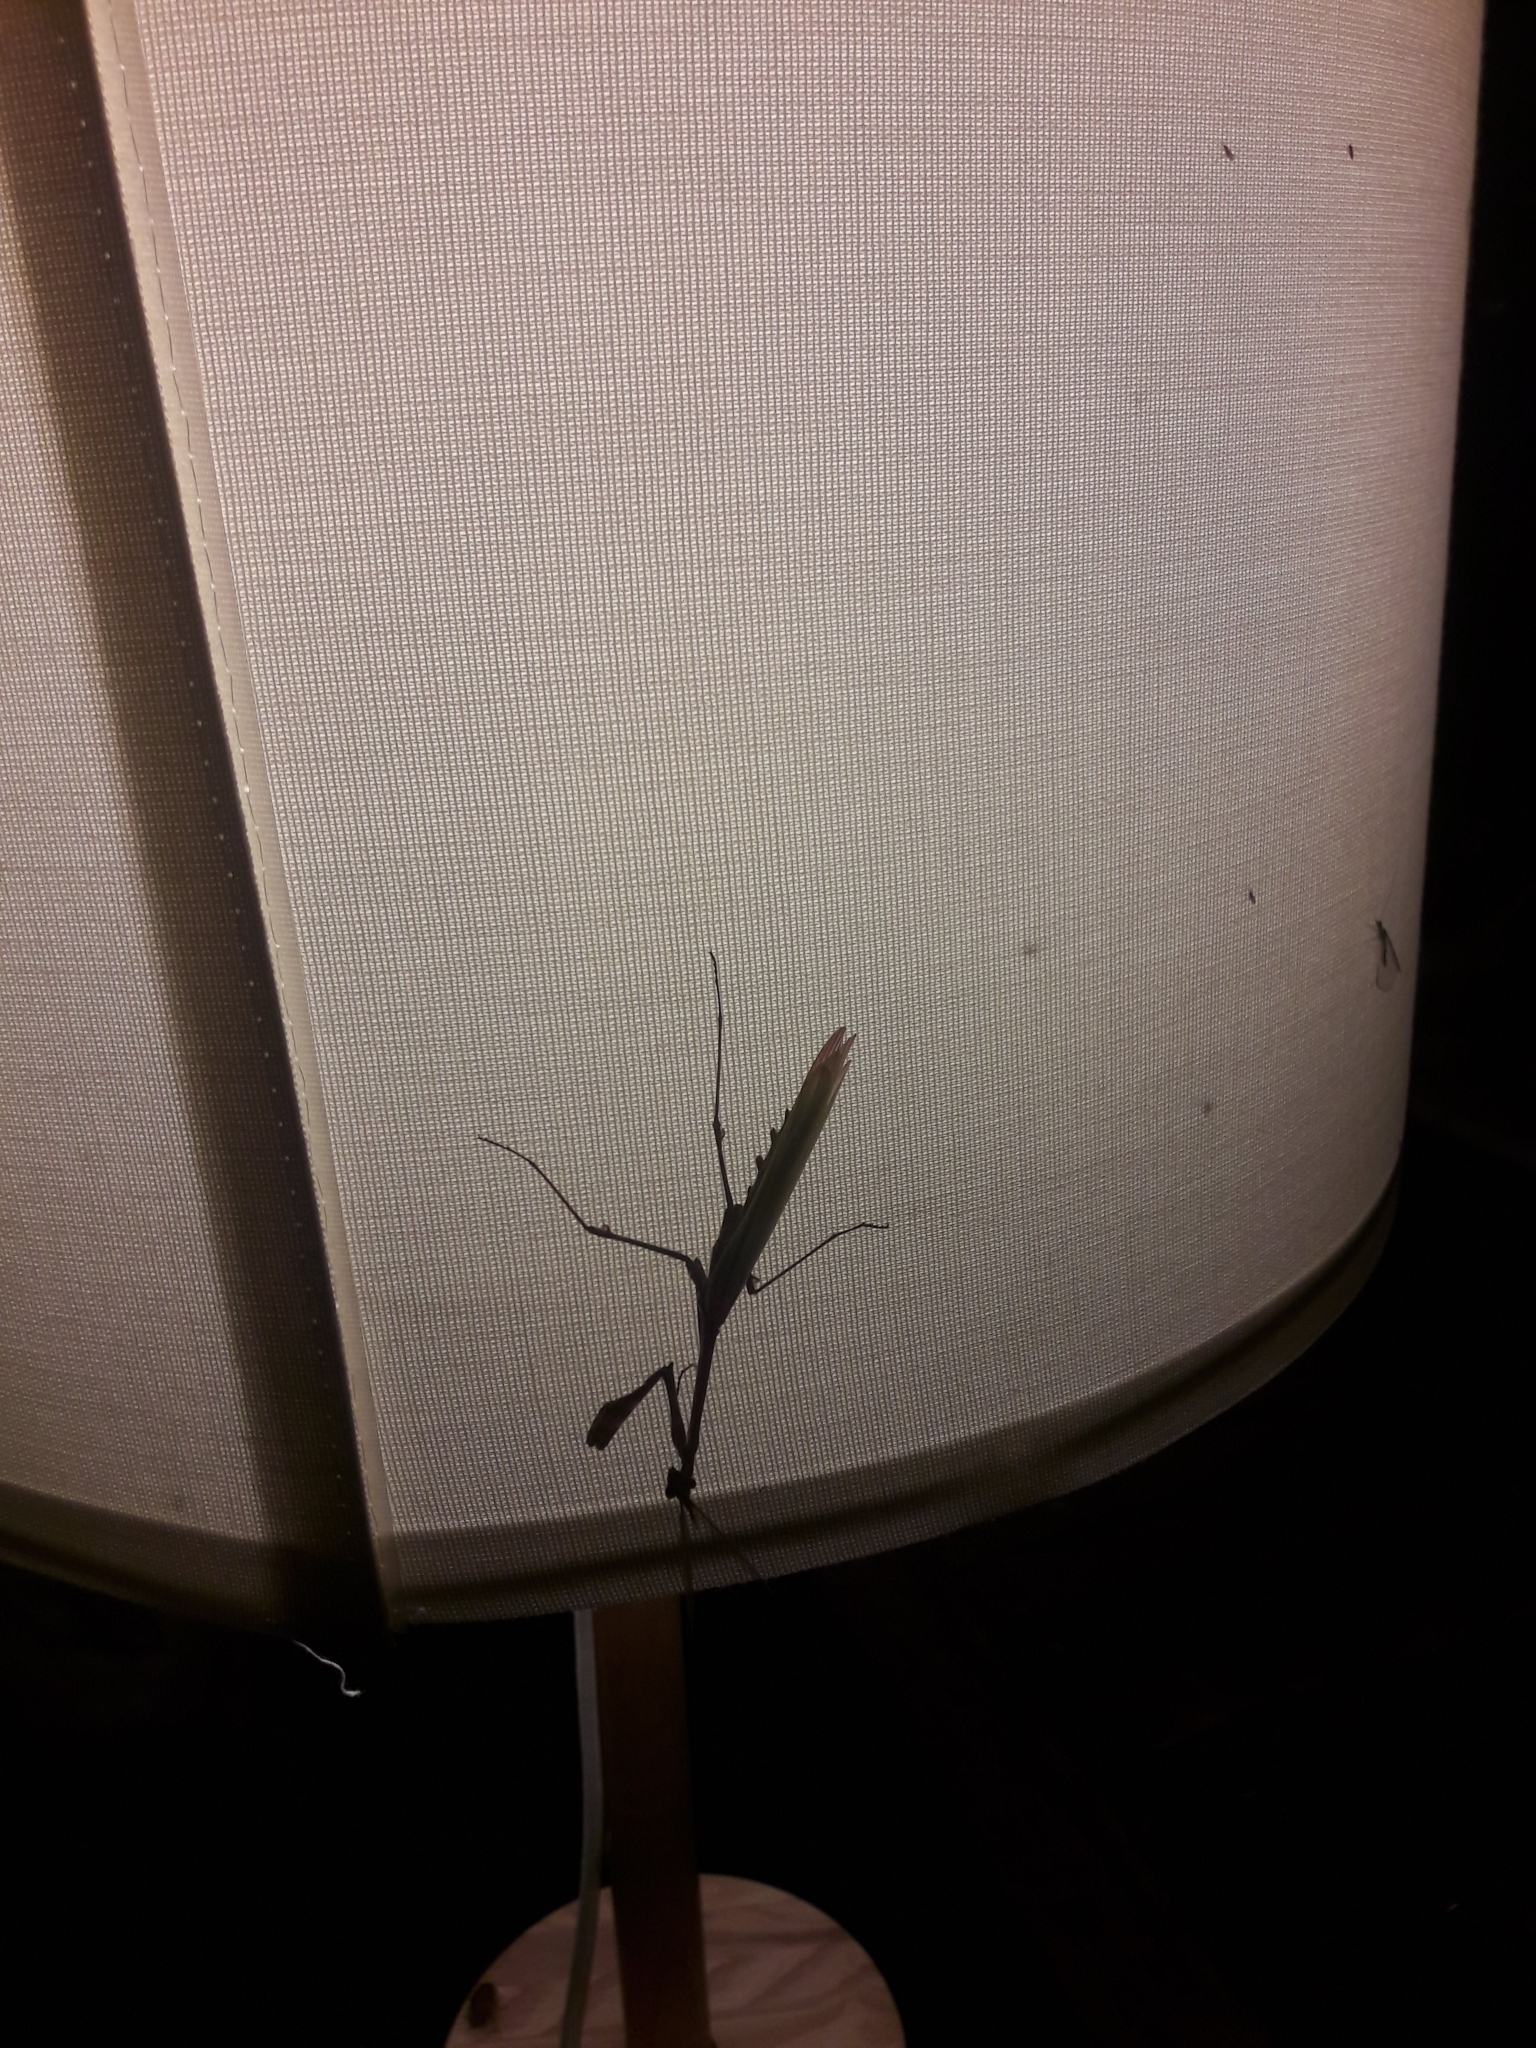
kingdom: Animalia
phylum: Arthropoda
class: Insecta
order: Mantodea
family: Empusidae
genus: Empusa
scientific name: Empusa pennata
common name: Conehead mantis
